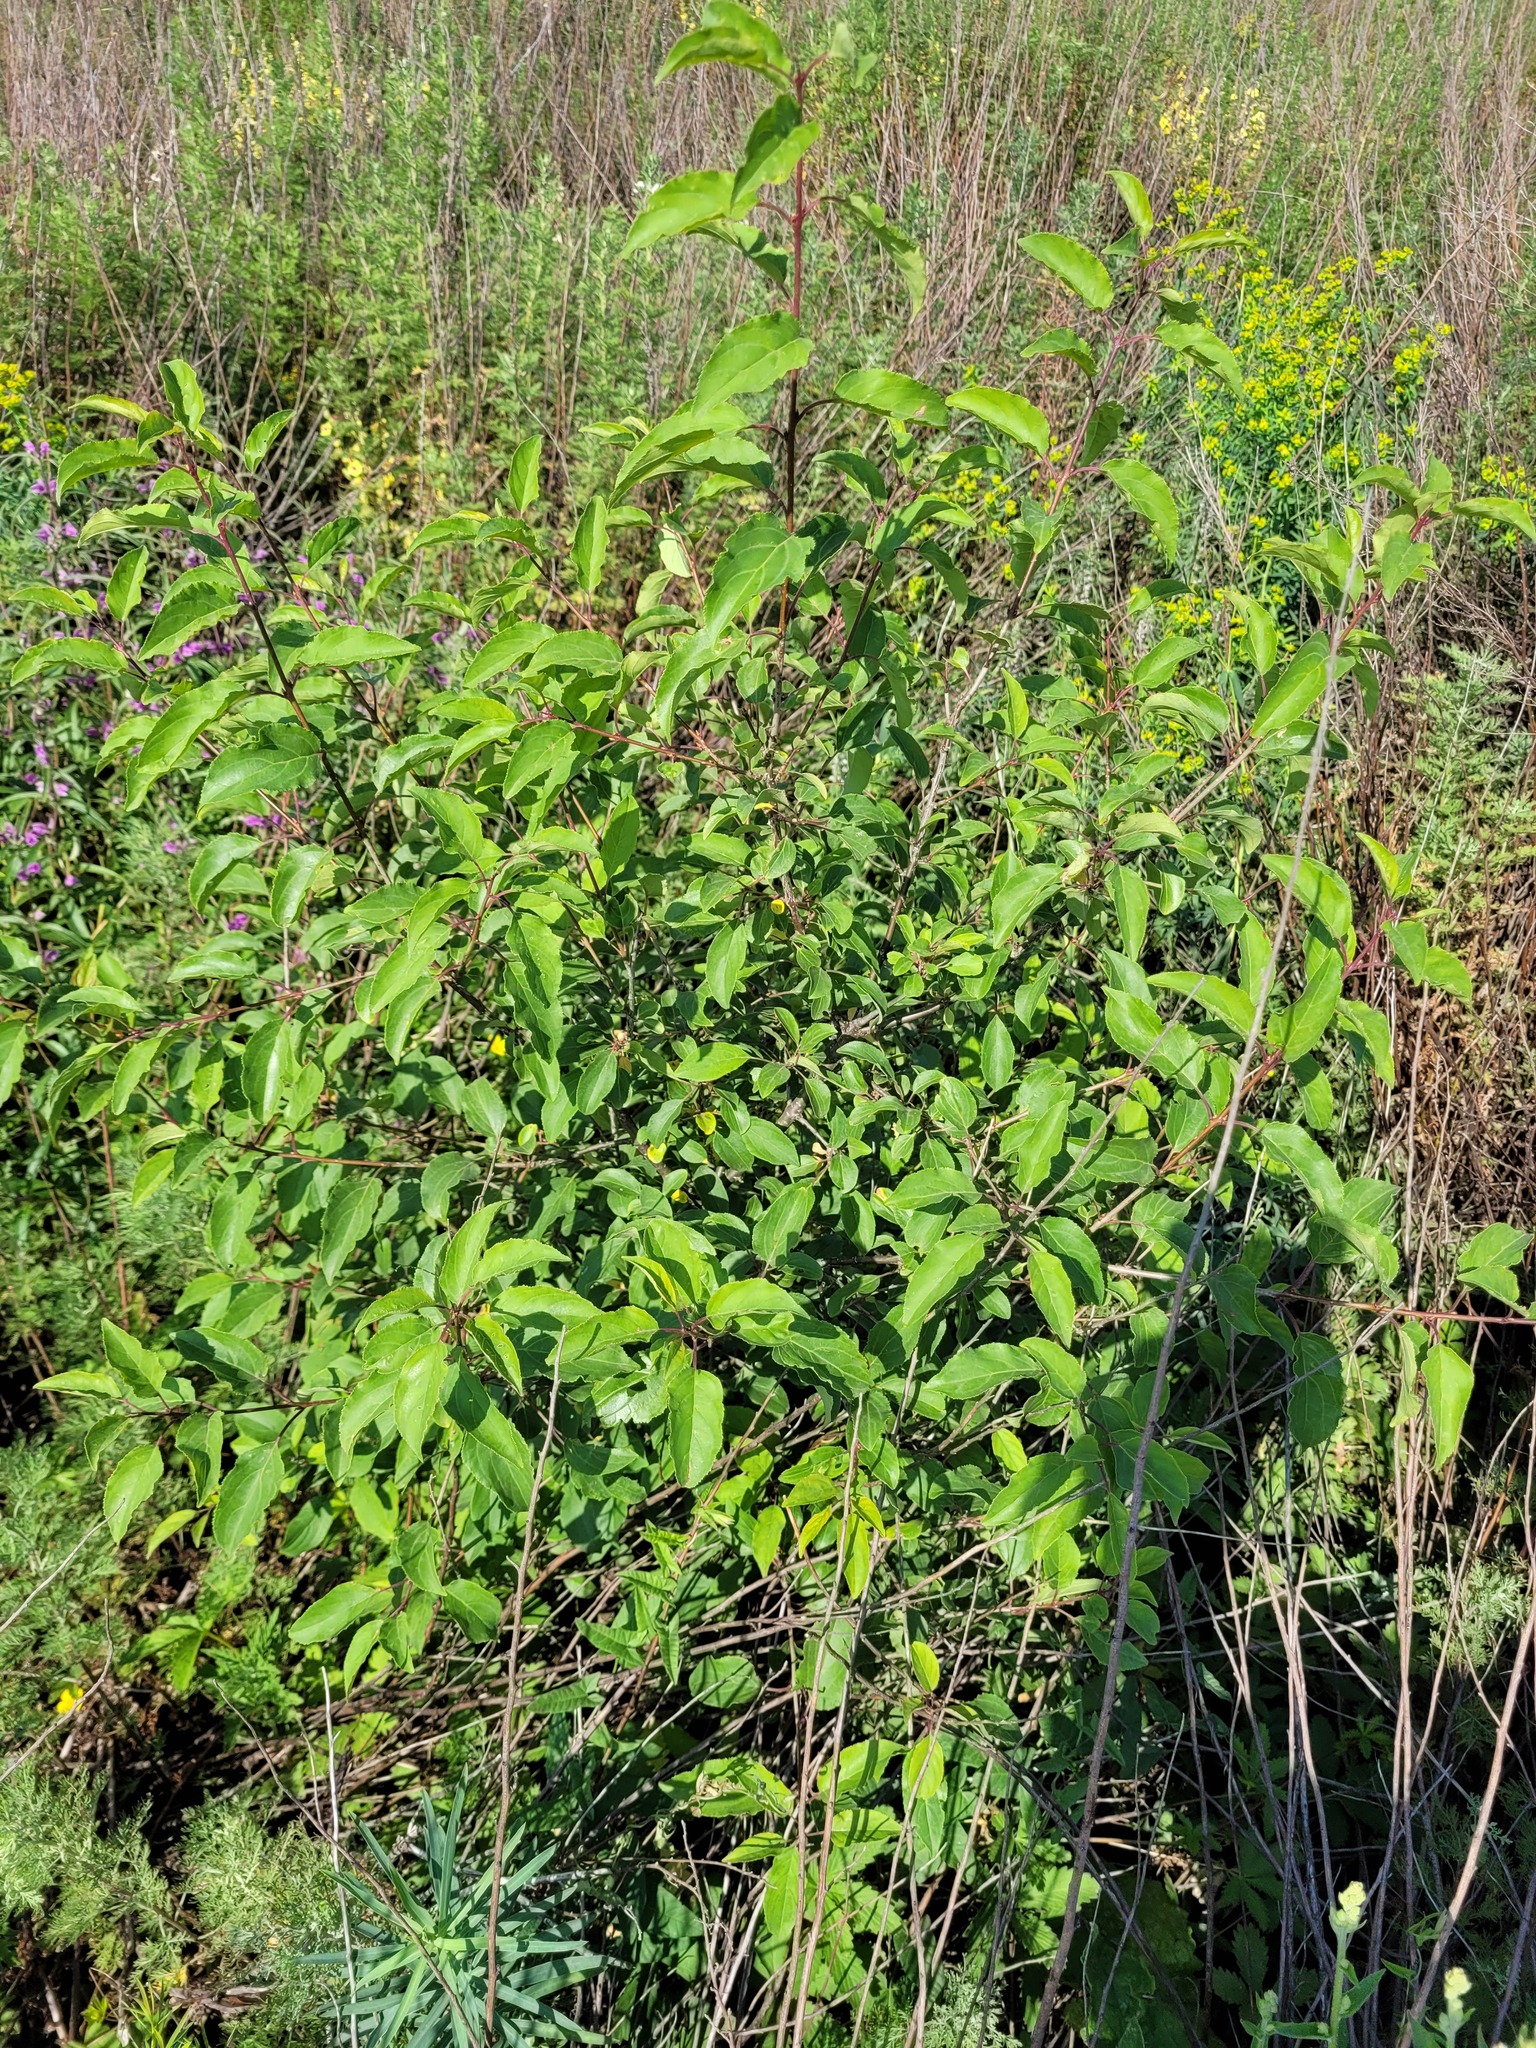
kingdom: Plantae
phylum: Tracheophyta
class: Magnoliopsida
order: Rosales
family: Rhamnaceae
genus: Rhamnus
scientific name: Rhamnus cathartica
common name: Common buckthorn
